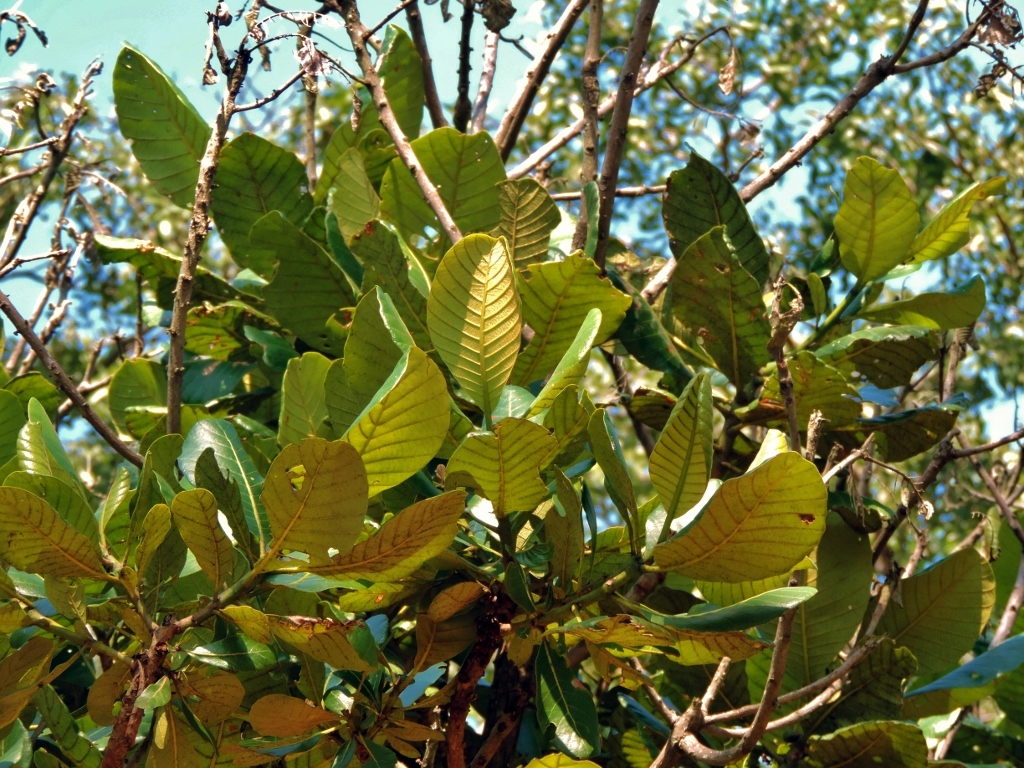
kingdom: Plantae
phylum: Tracheophyta
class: Magnoliopsida
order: Malpighiales
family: Phyllanthaceae
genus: Uapaca
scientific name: Uapaca kirkiana
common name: Wild loquat
